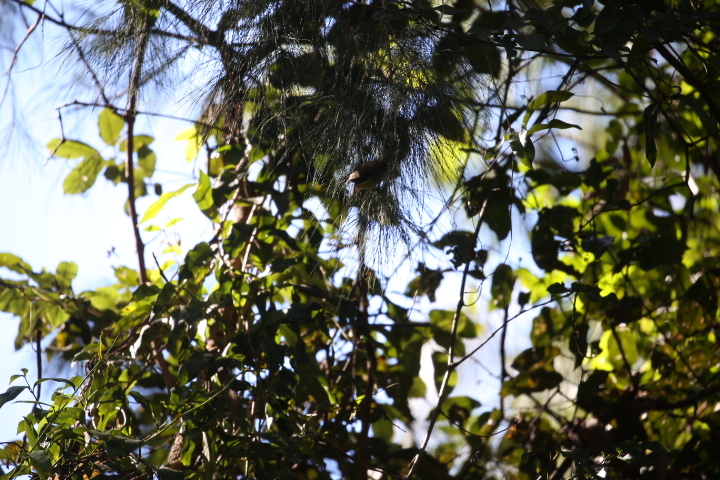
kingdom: Animalia
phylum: Chordata
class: Aves
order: Passeriformes
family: Acanthizidae
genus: Gerygone
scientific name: Gerygone mouki
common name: Brown gerygone
